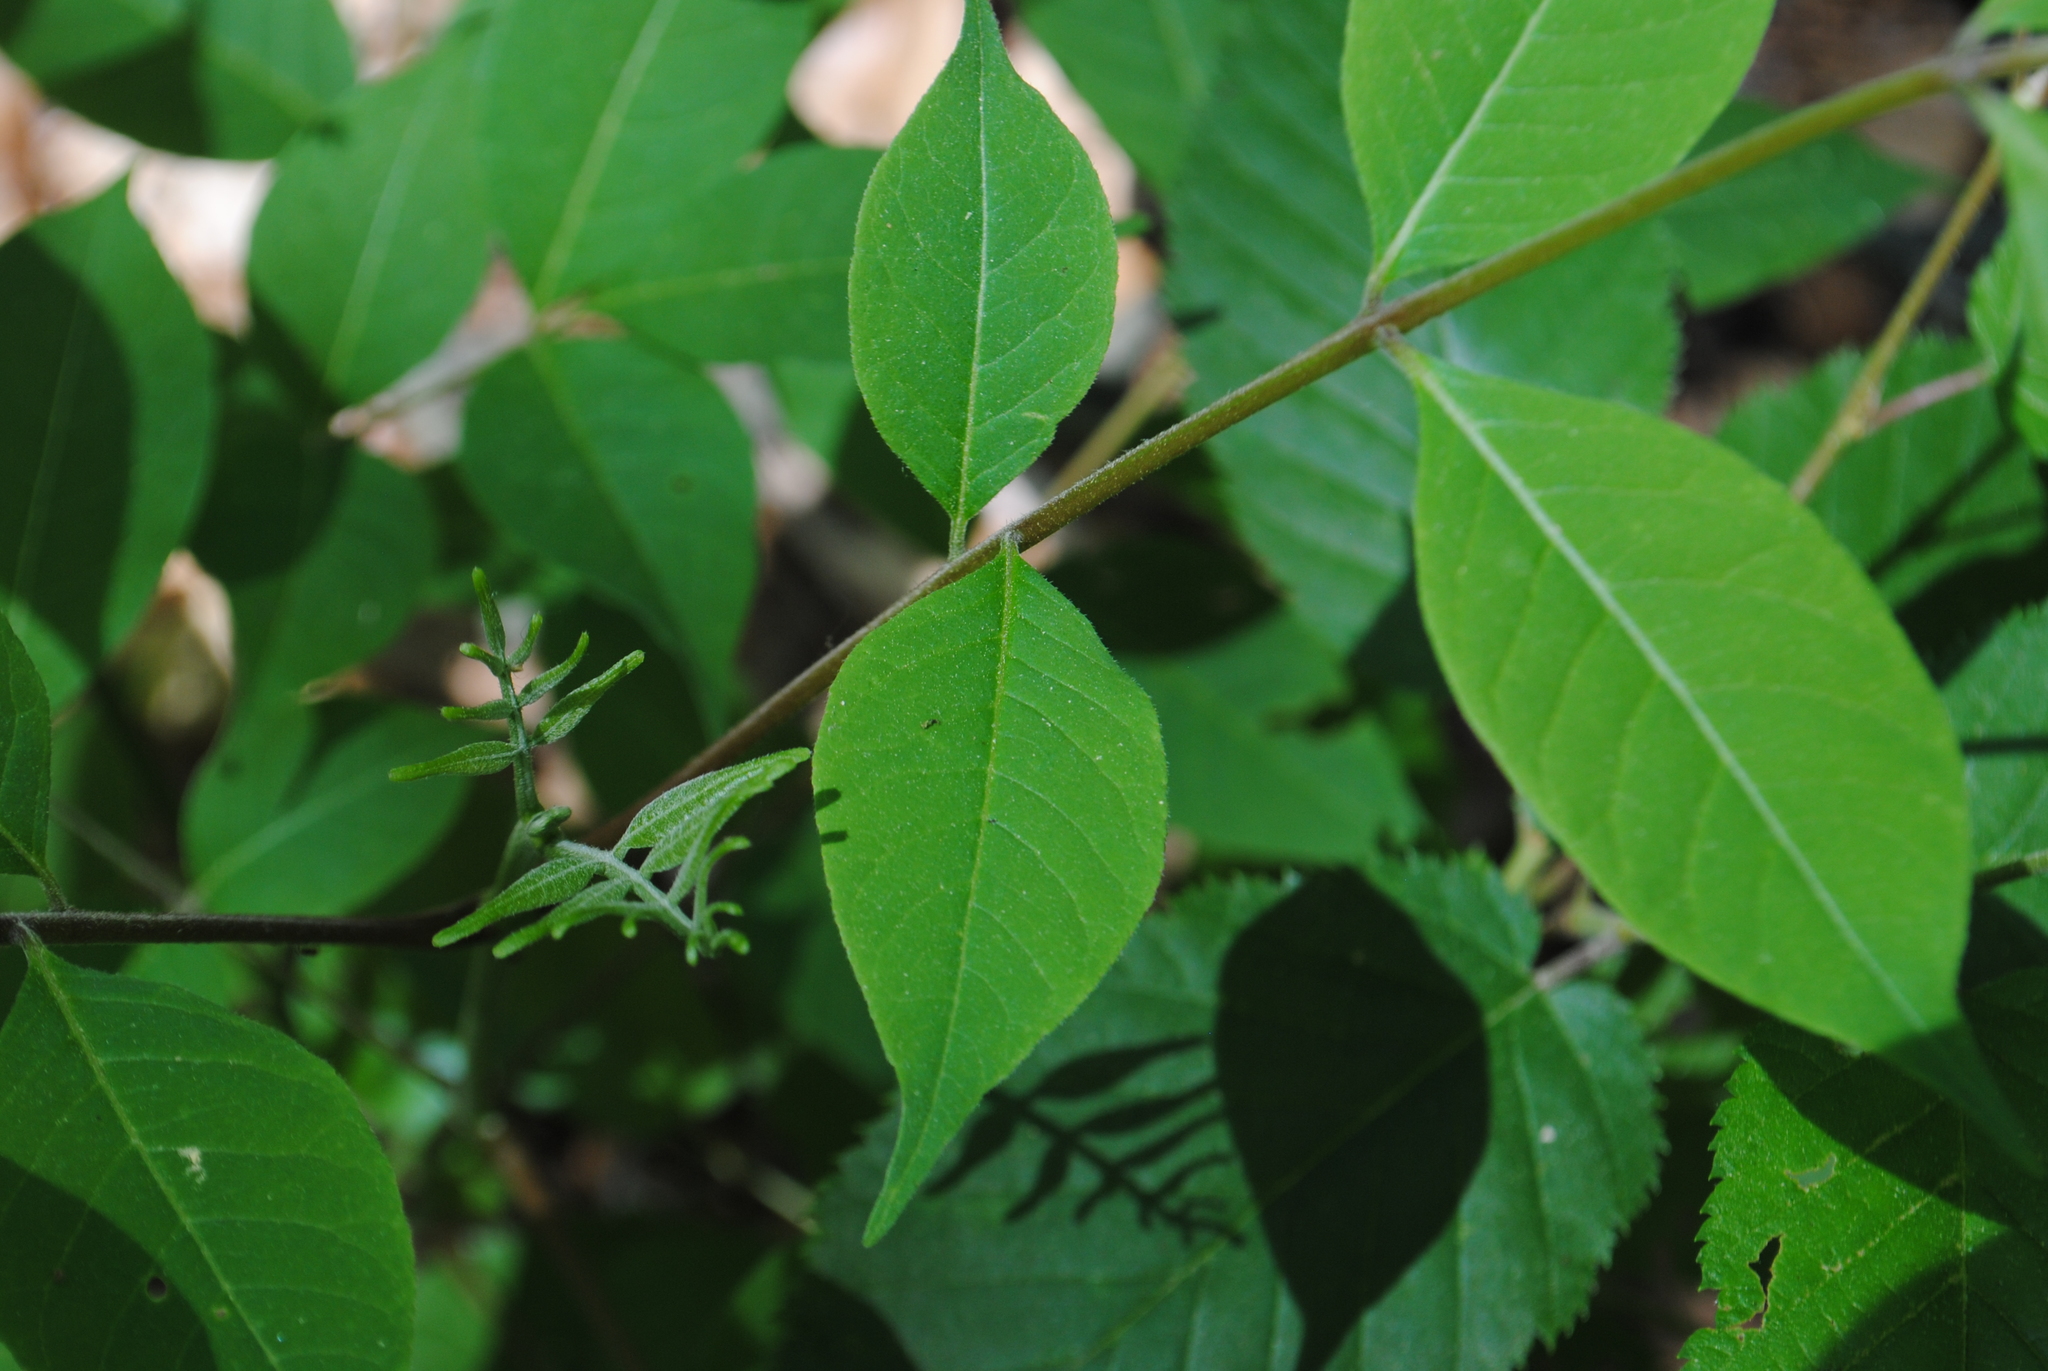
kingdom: Plantae
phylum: Tracheophyta
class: Magnoliopsida
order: Sapindales
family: Rutaceae
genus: Phellodendron
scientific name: Phellodendron amurense
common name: Amur corktree
